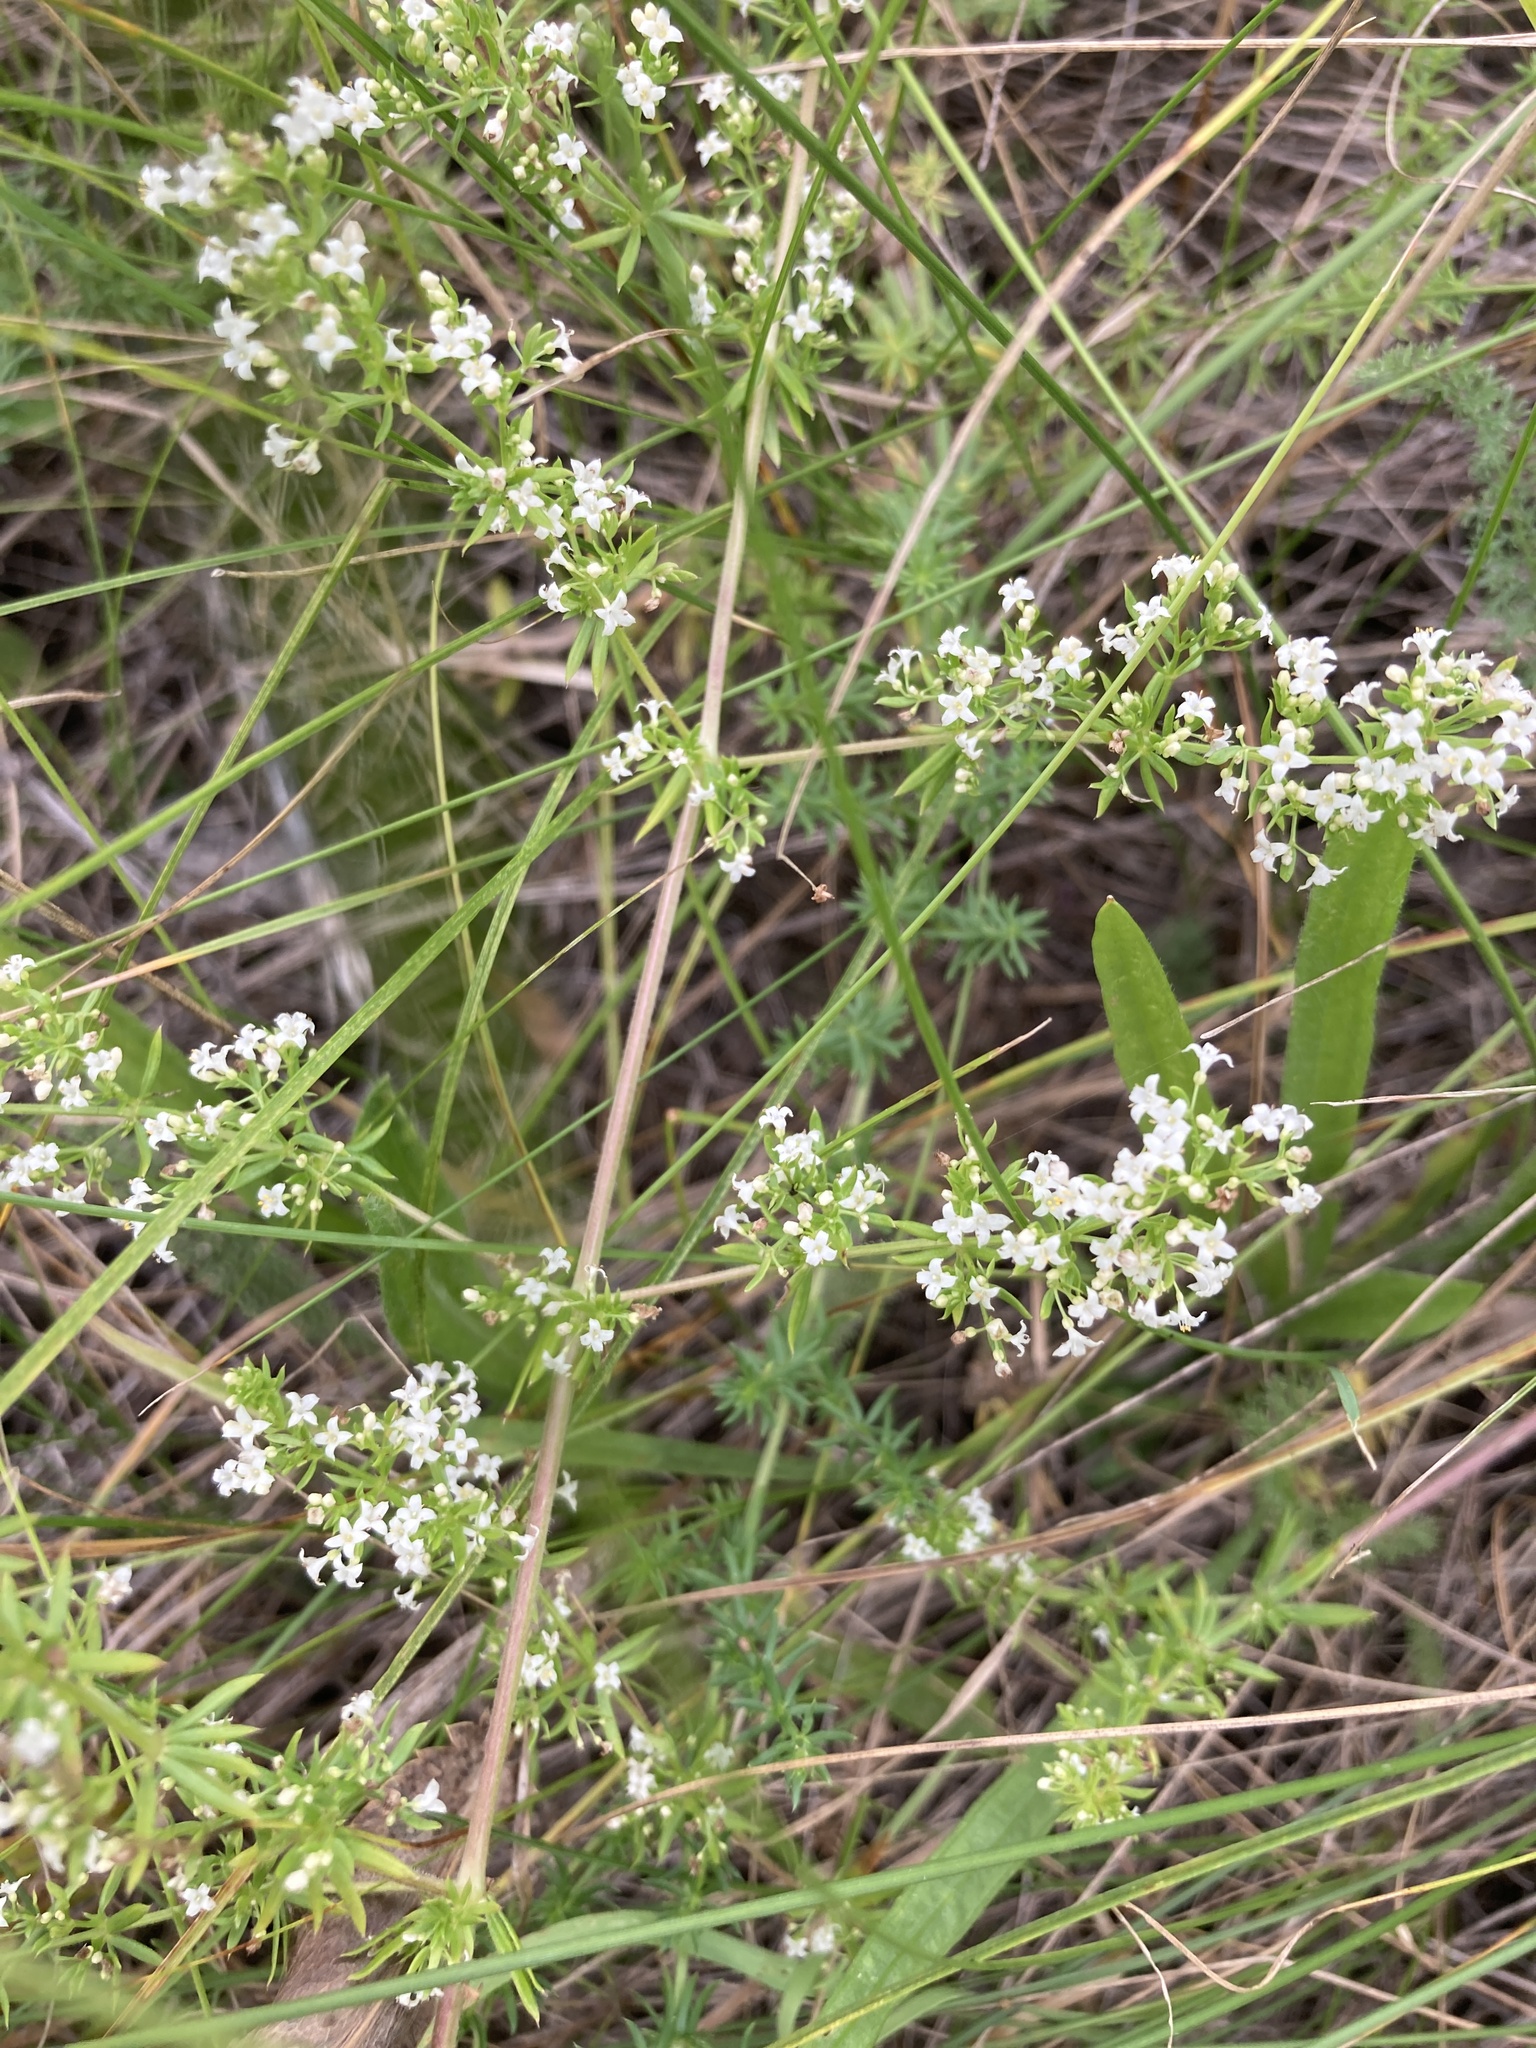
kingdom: Plantae
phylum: Tracheophyta
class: Magnoliopsida
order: Gentianales
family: Rubiaceae
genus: Galium
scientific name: Galium humifusum
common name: Spreading bedstraw
